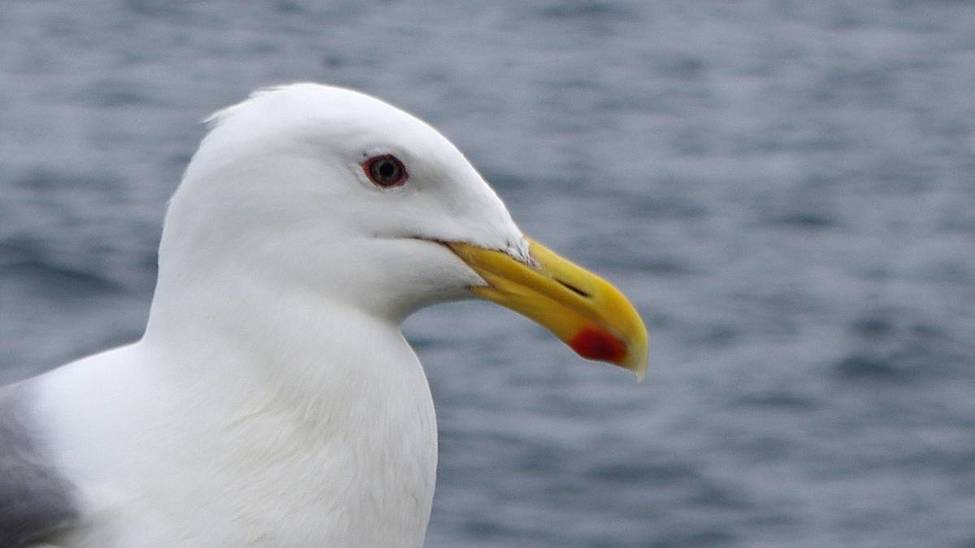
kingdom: Animalia
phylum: Chordata
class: Aves
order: Charadriiformes
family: Laridae
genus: Larus
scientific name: Larus glaucescens
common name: Glaucous-winged gull
